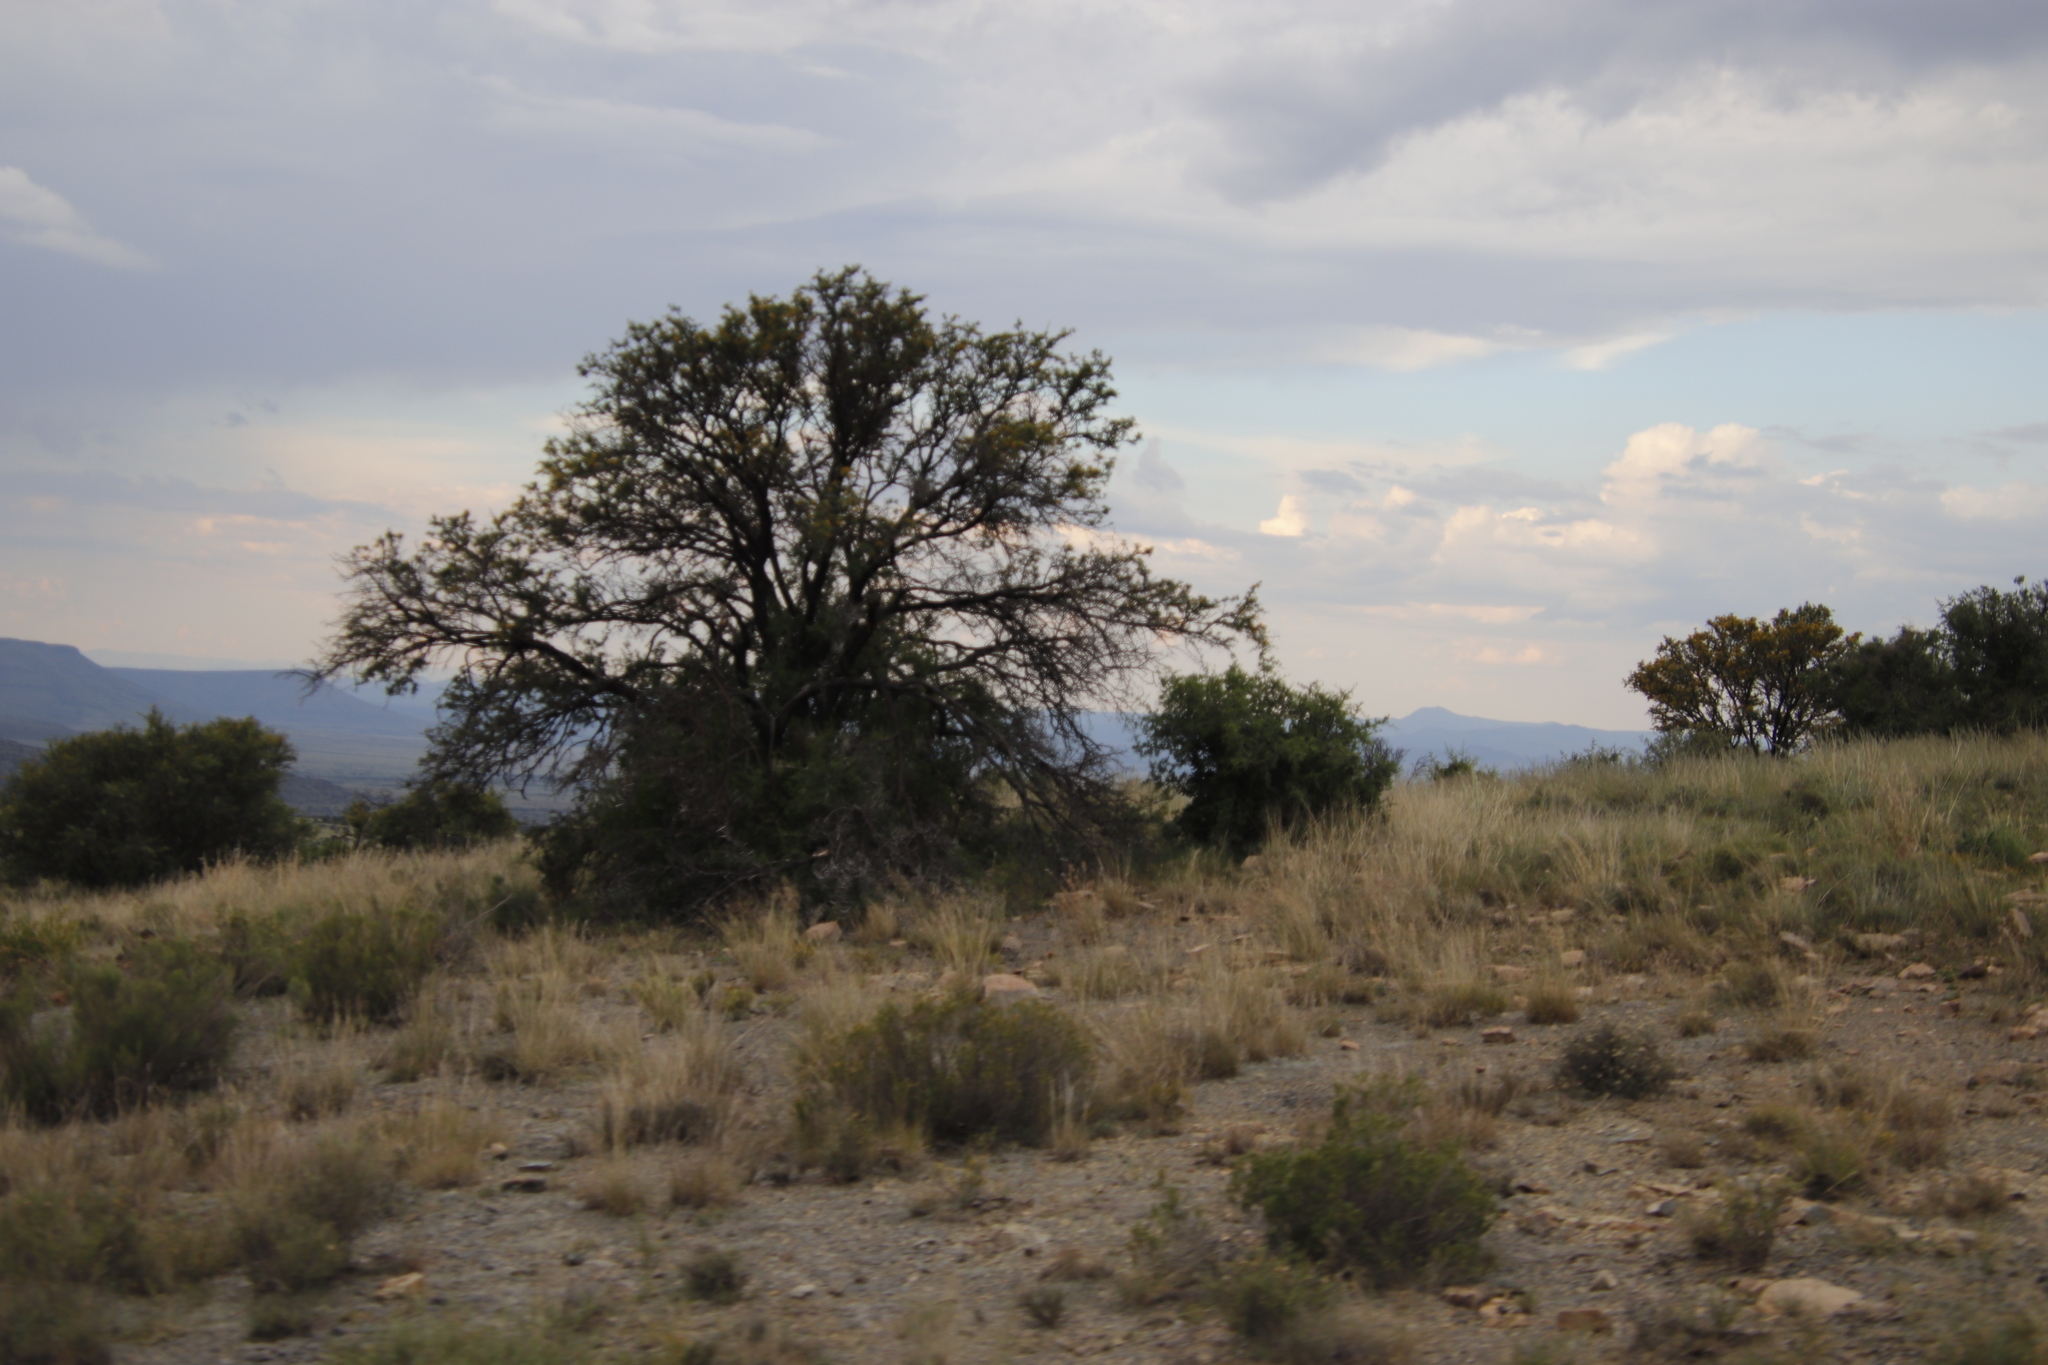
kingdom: Plantae
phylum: Tracheophyta
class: Magnoliopsida
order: Fabales
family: Fabaceae
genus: Vachellia
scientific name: Vachellia karroo
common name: Sweet thorn
